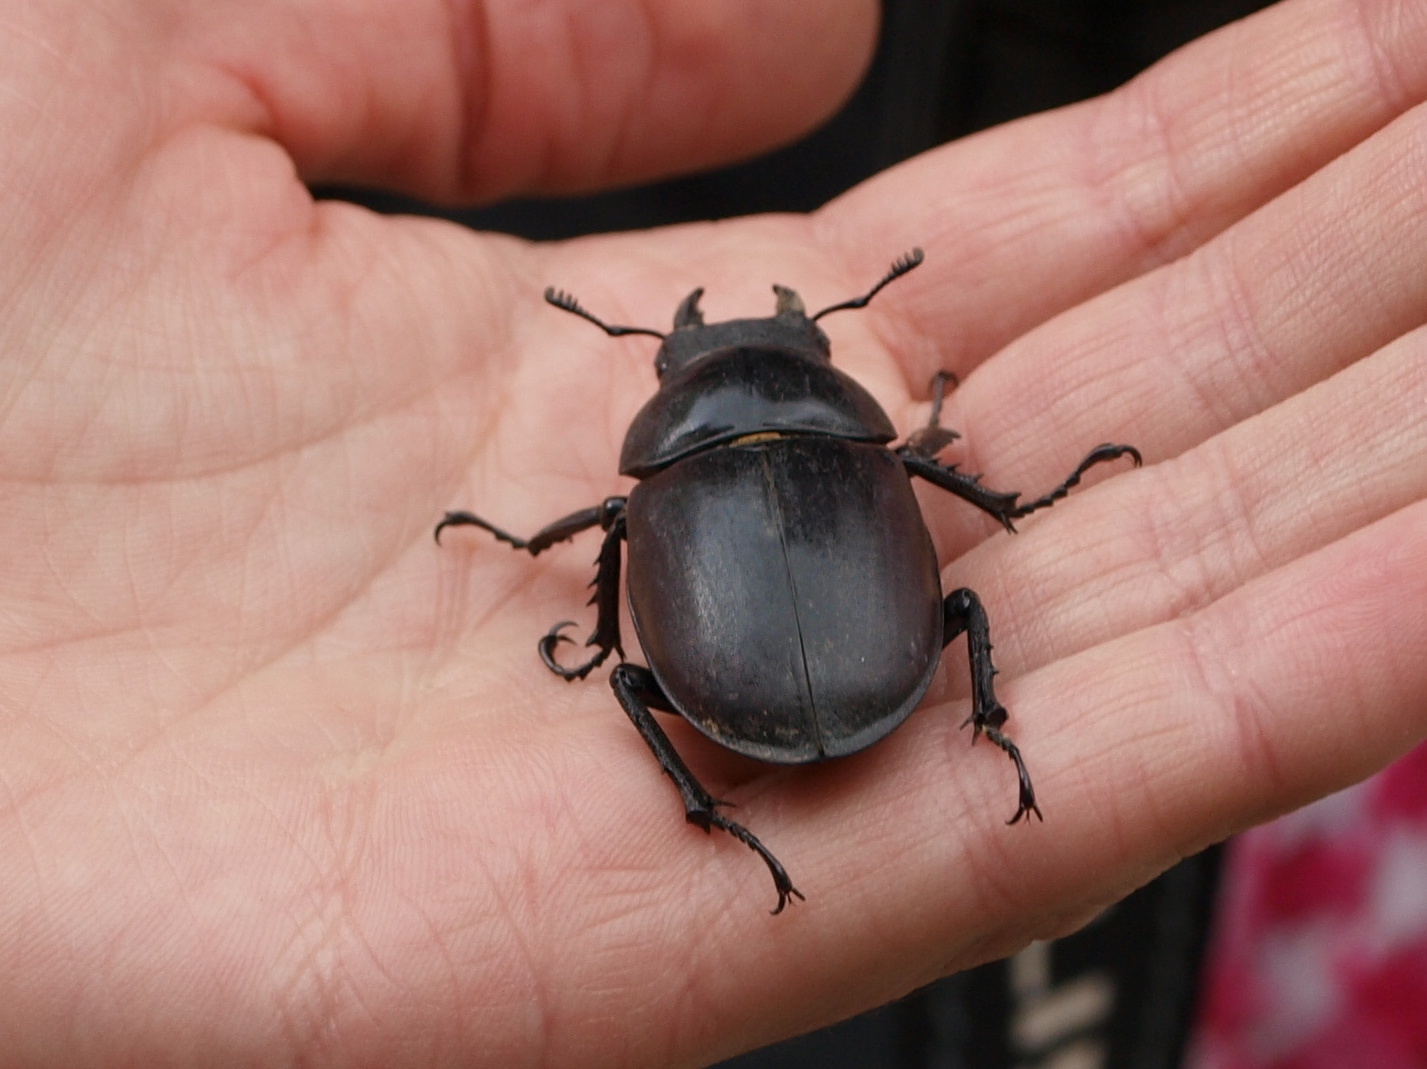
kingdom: Animalia
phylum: Arthropoda
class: Insecta
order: Coleoptera
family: Lucanidae
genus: Lucanus
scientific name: Lucanus cervus
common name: Stag beetle
